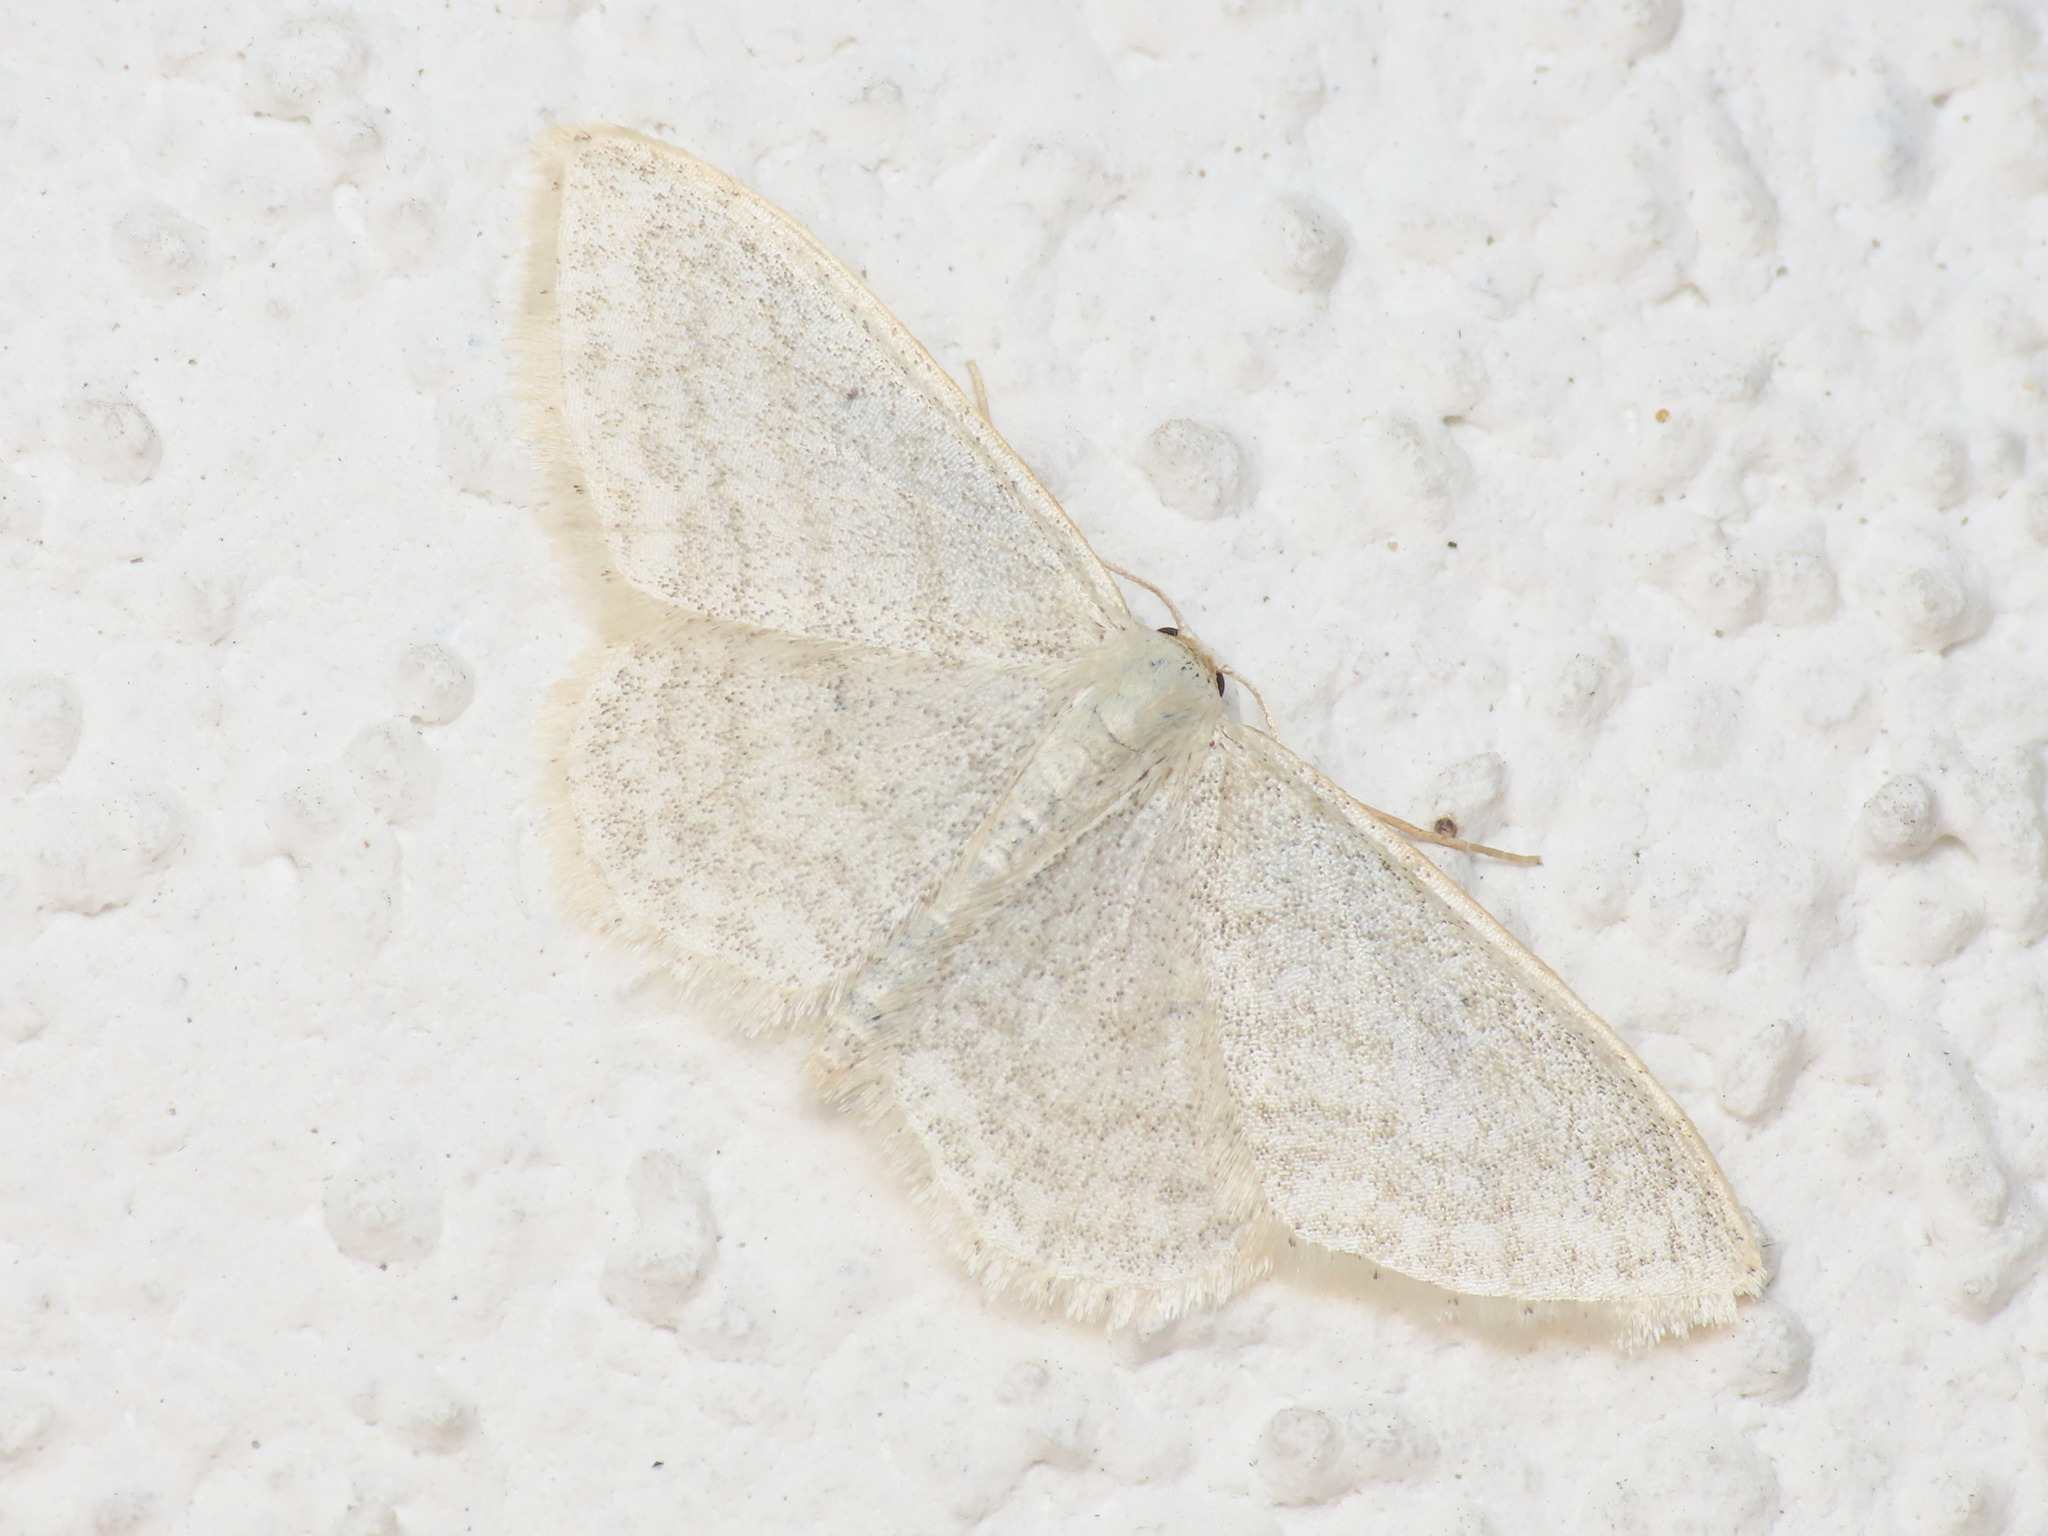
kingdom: Animalia
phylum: Arthropoda
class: Insecta
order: Lepidoptera
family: Geometridae
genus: Idaea
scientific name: Idaea subsericeata
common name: Satin wave
